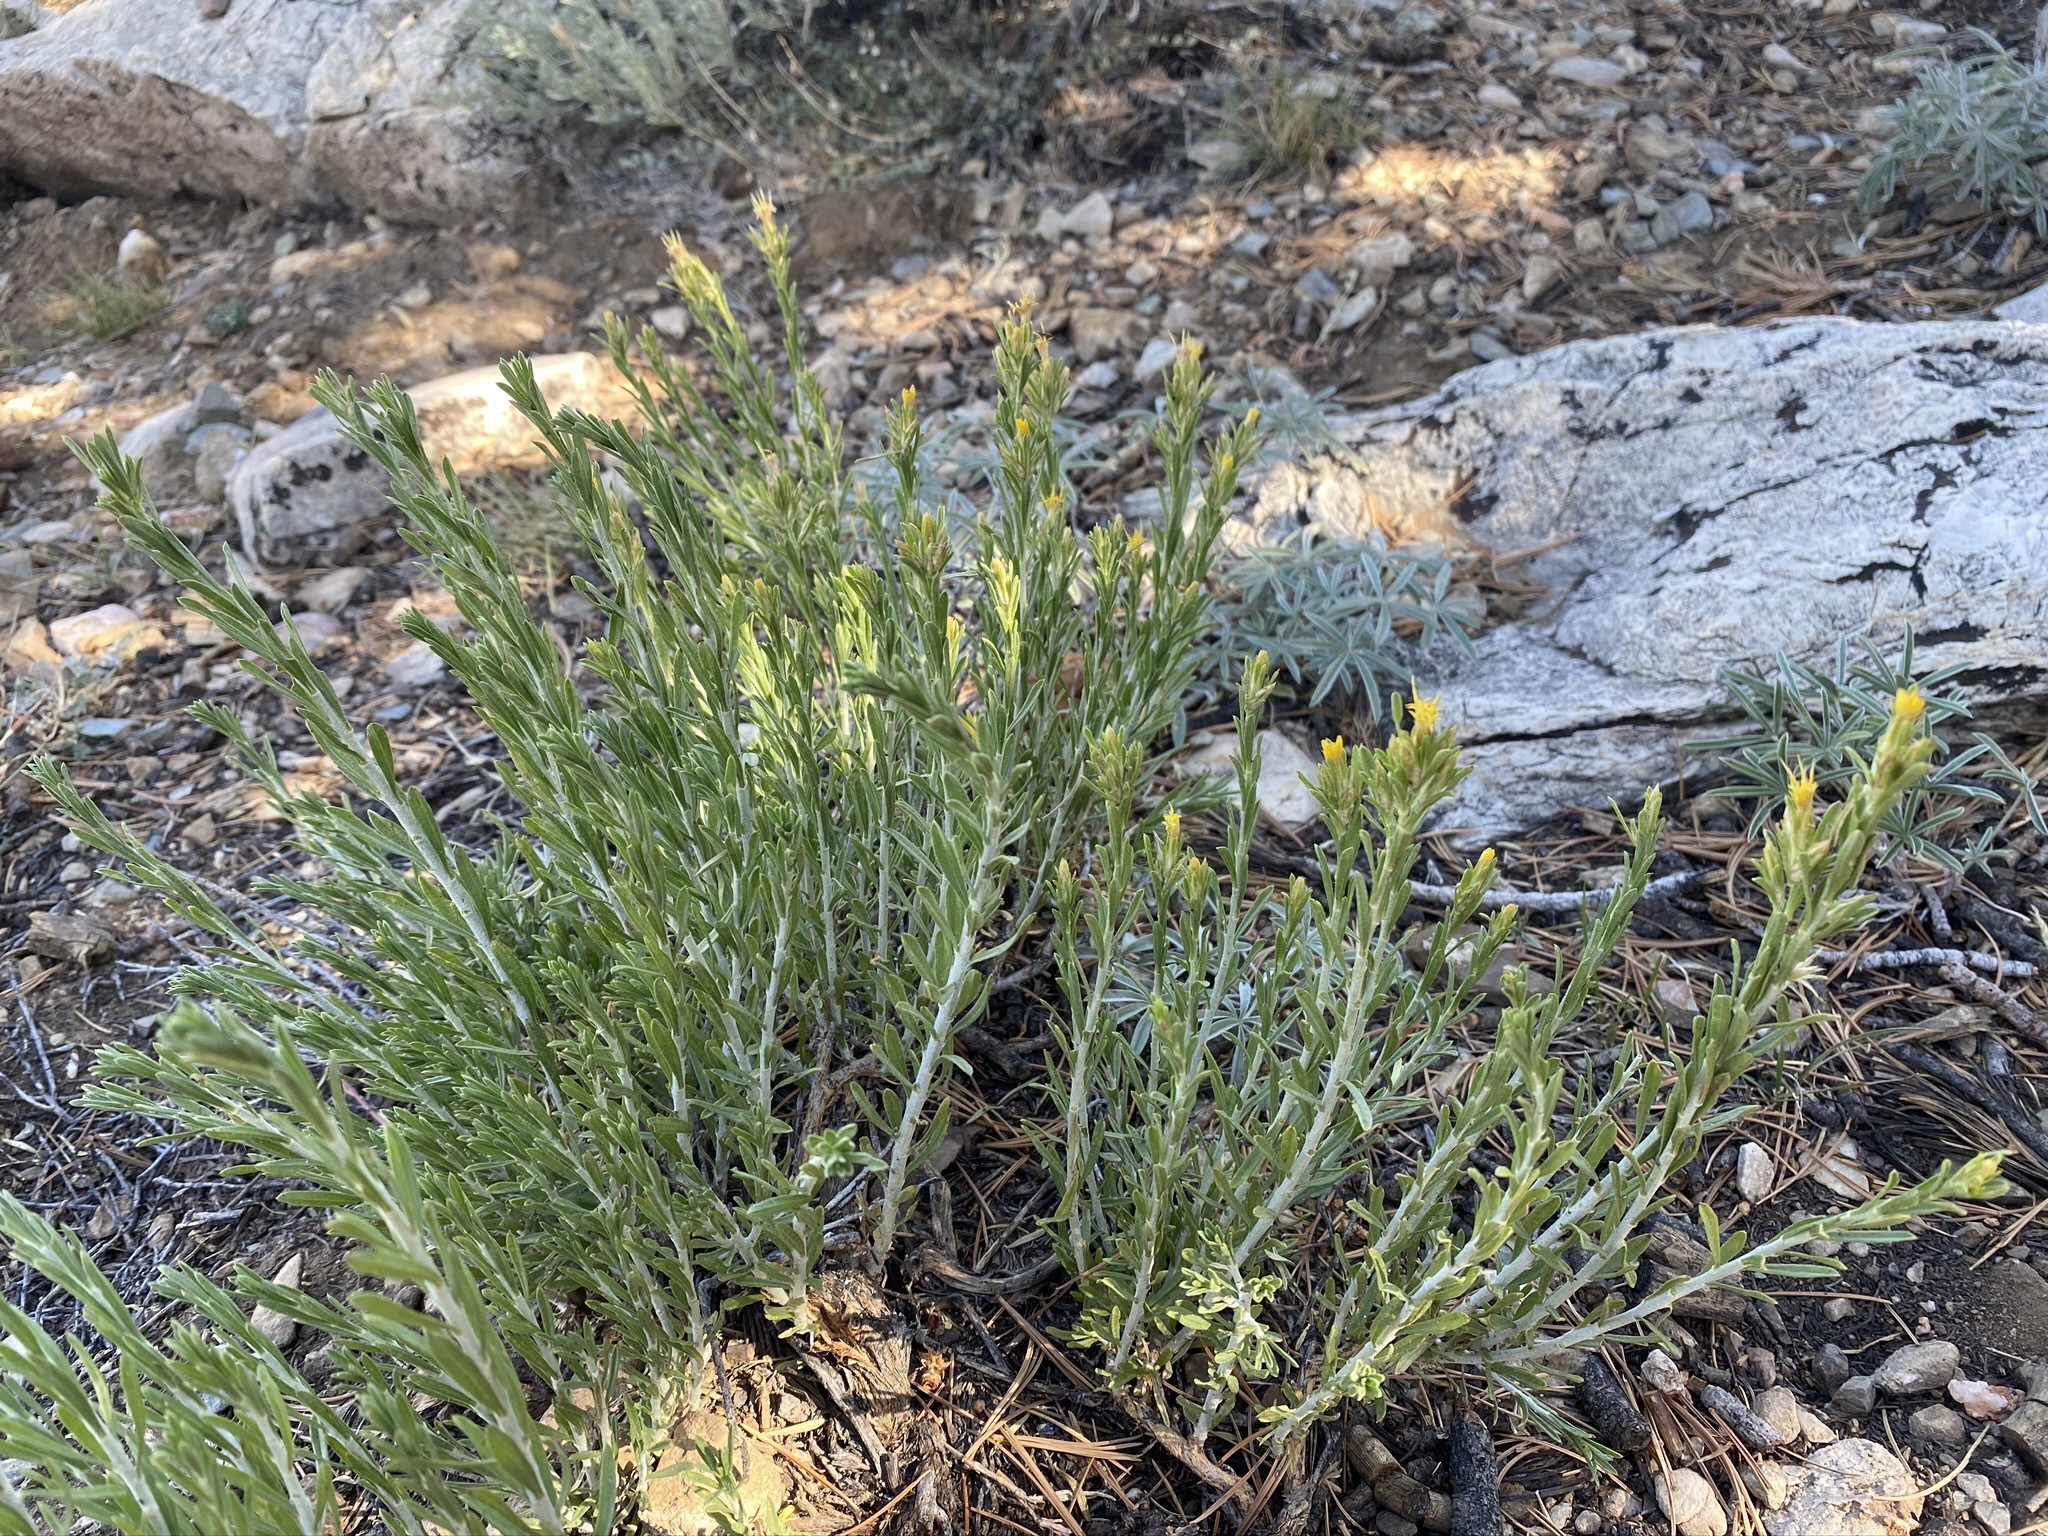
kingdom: Plantae
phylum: Tracheophyta
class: Magnoliopsida
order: Asterales
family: Asteraceae
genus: Ericameria
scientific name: Ericameria parryi
